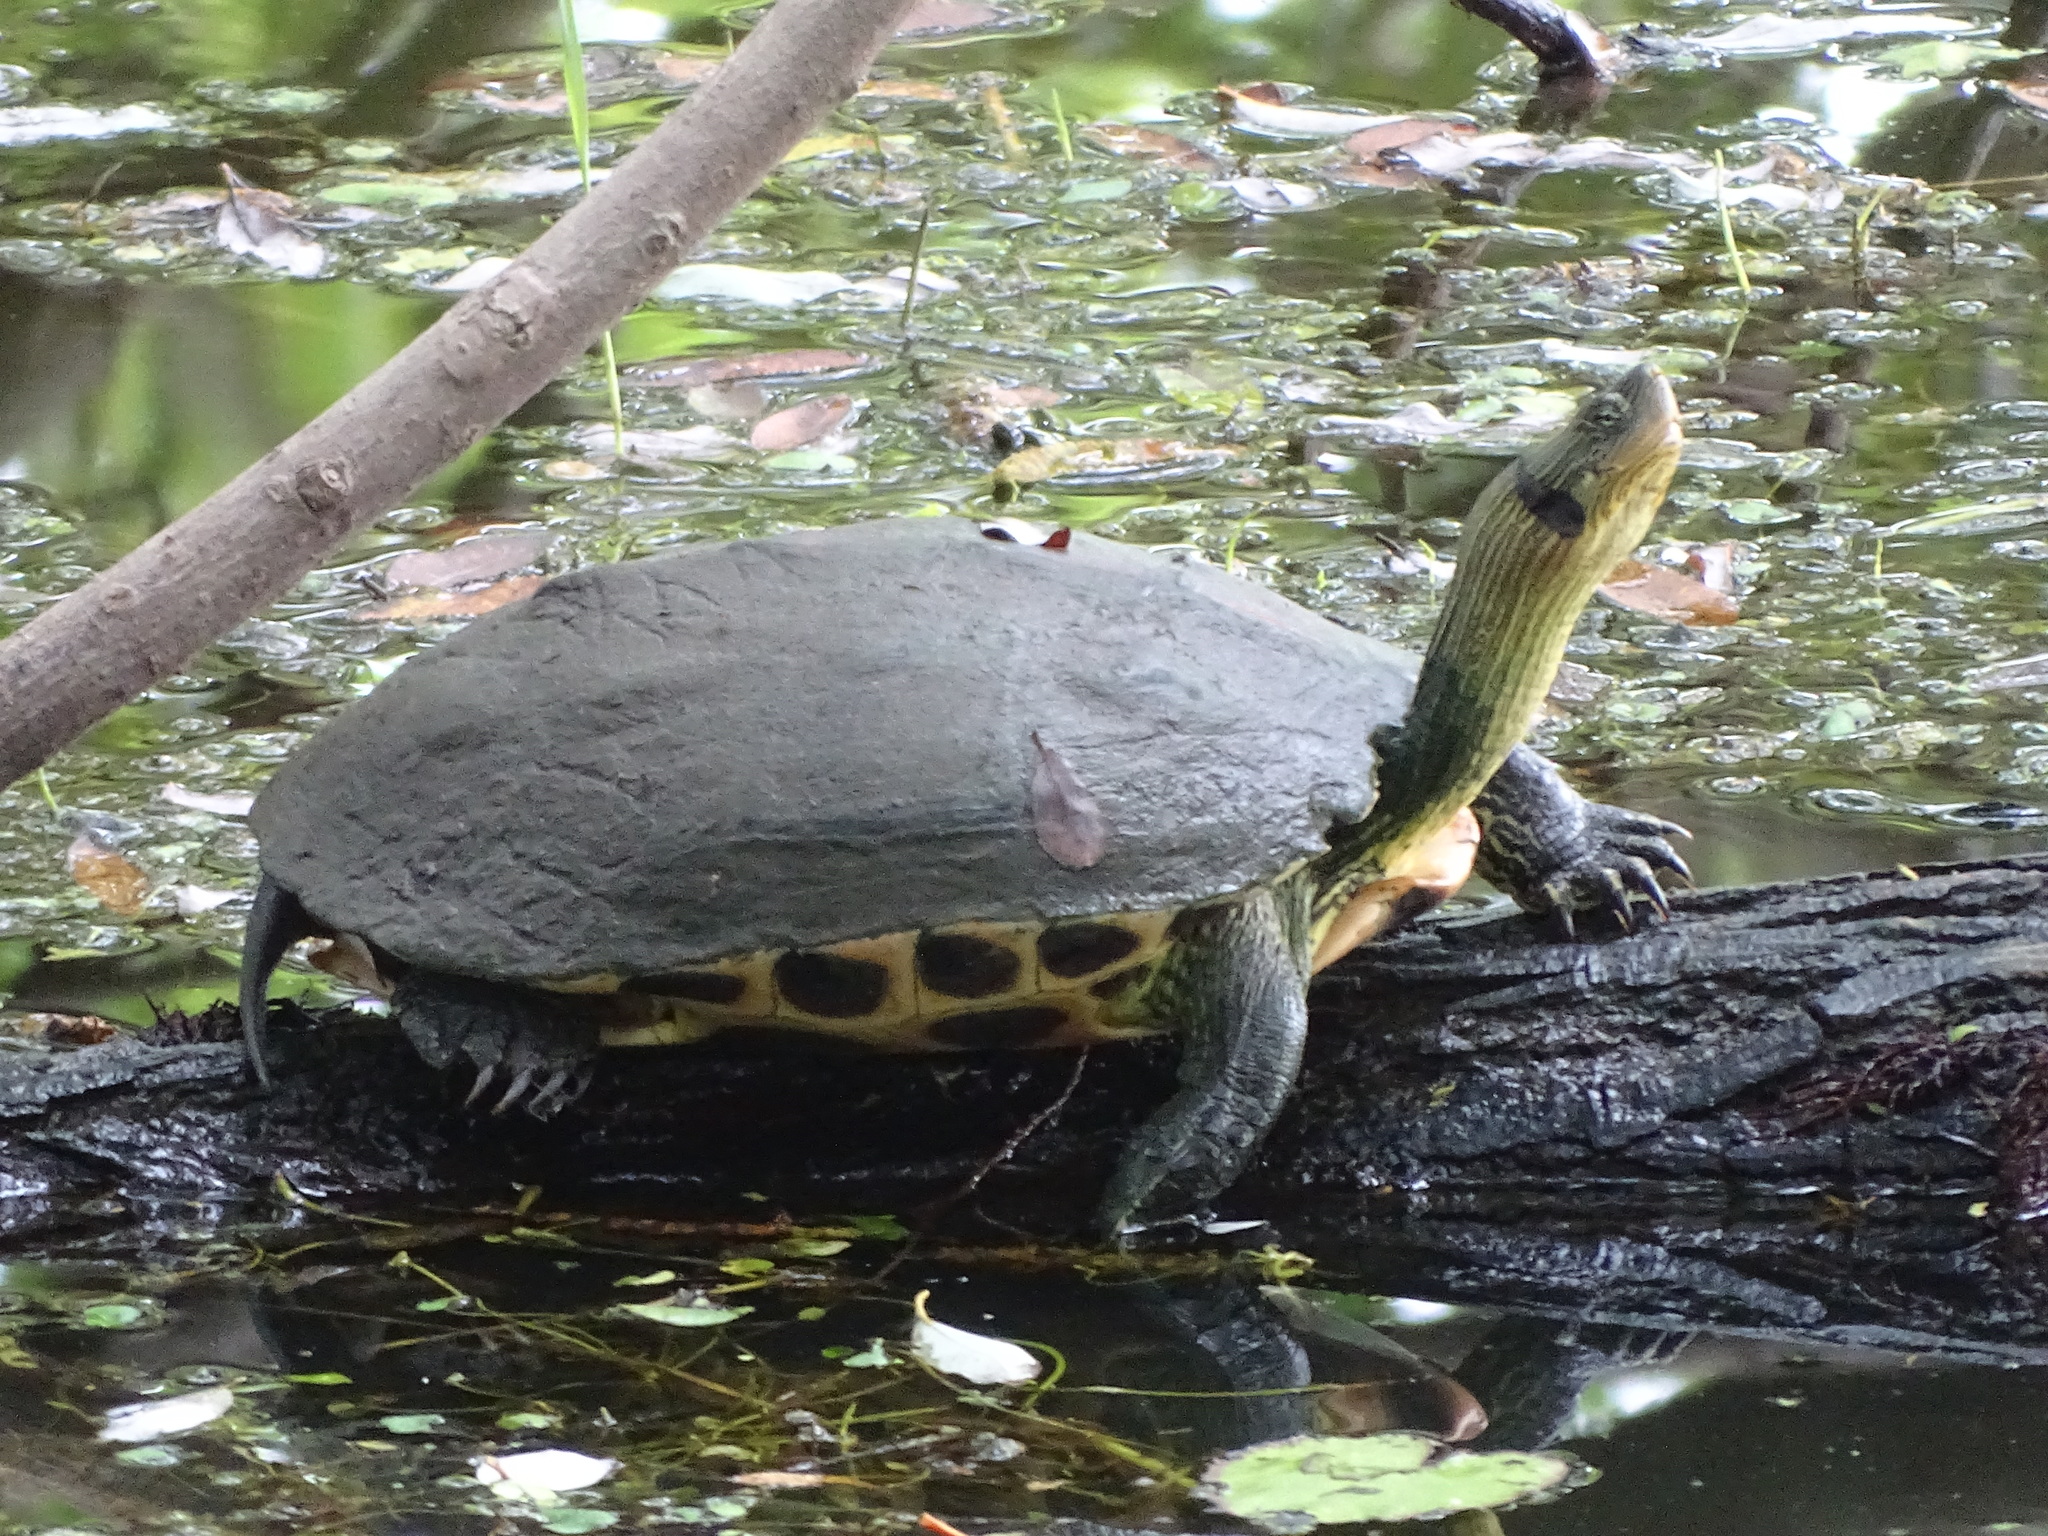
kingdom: Animalia
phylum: Chordata
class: Testudines
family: Geoemydidae
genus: Mauremys
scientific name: Mauremys sinensis
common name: Chinese stripe-necked turtle
